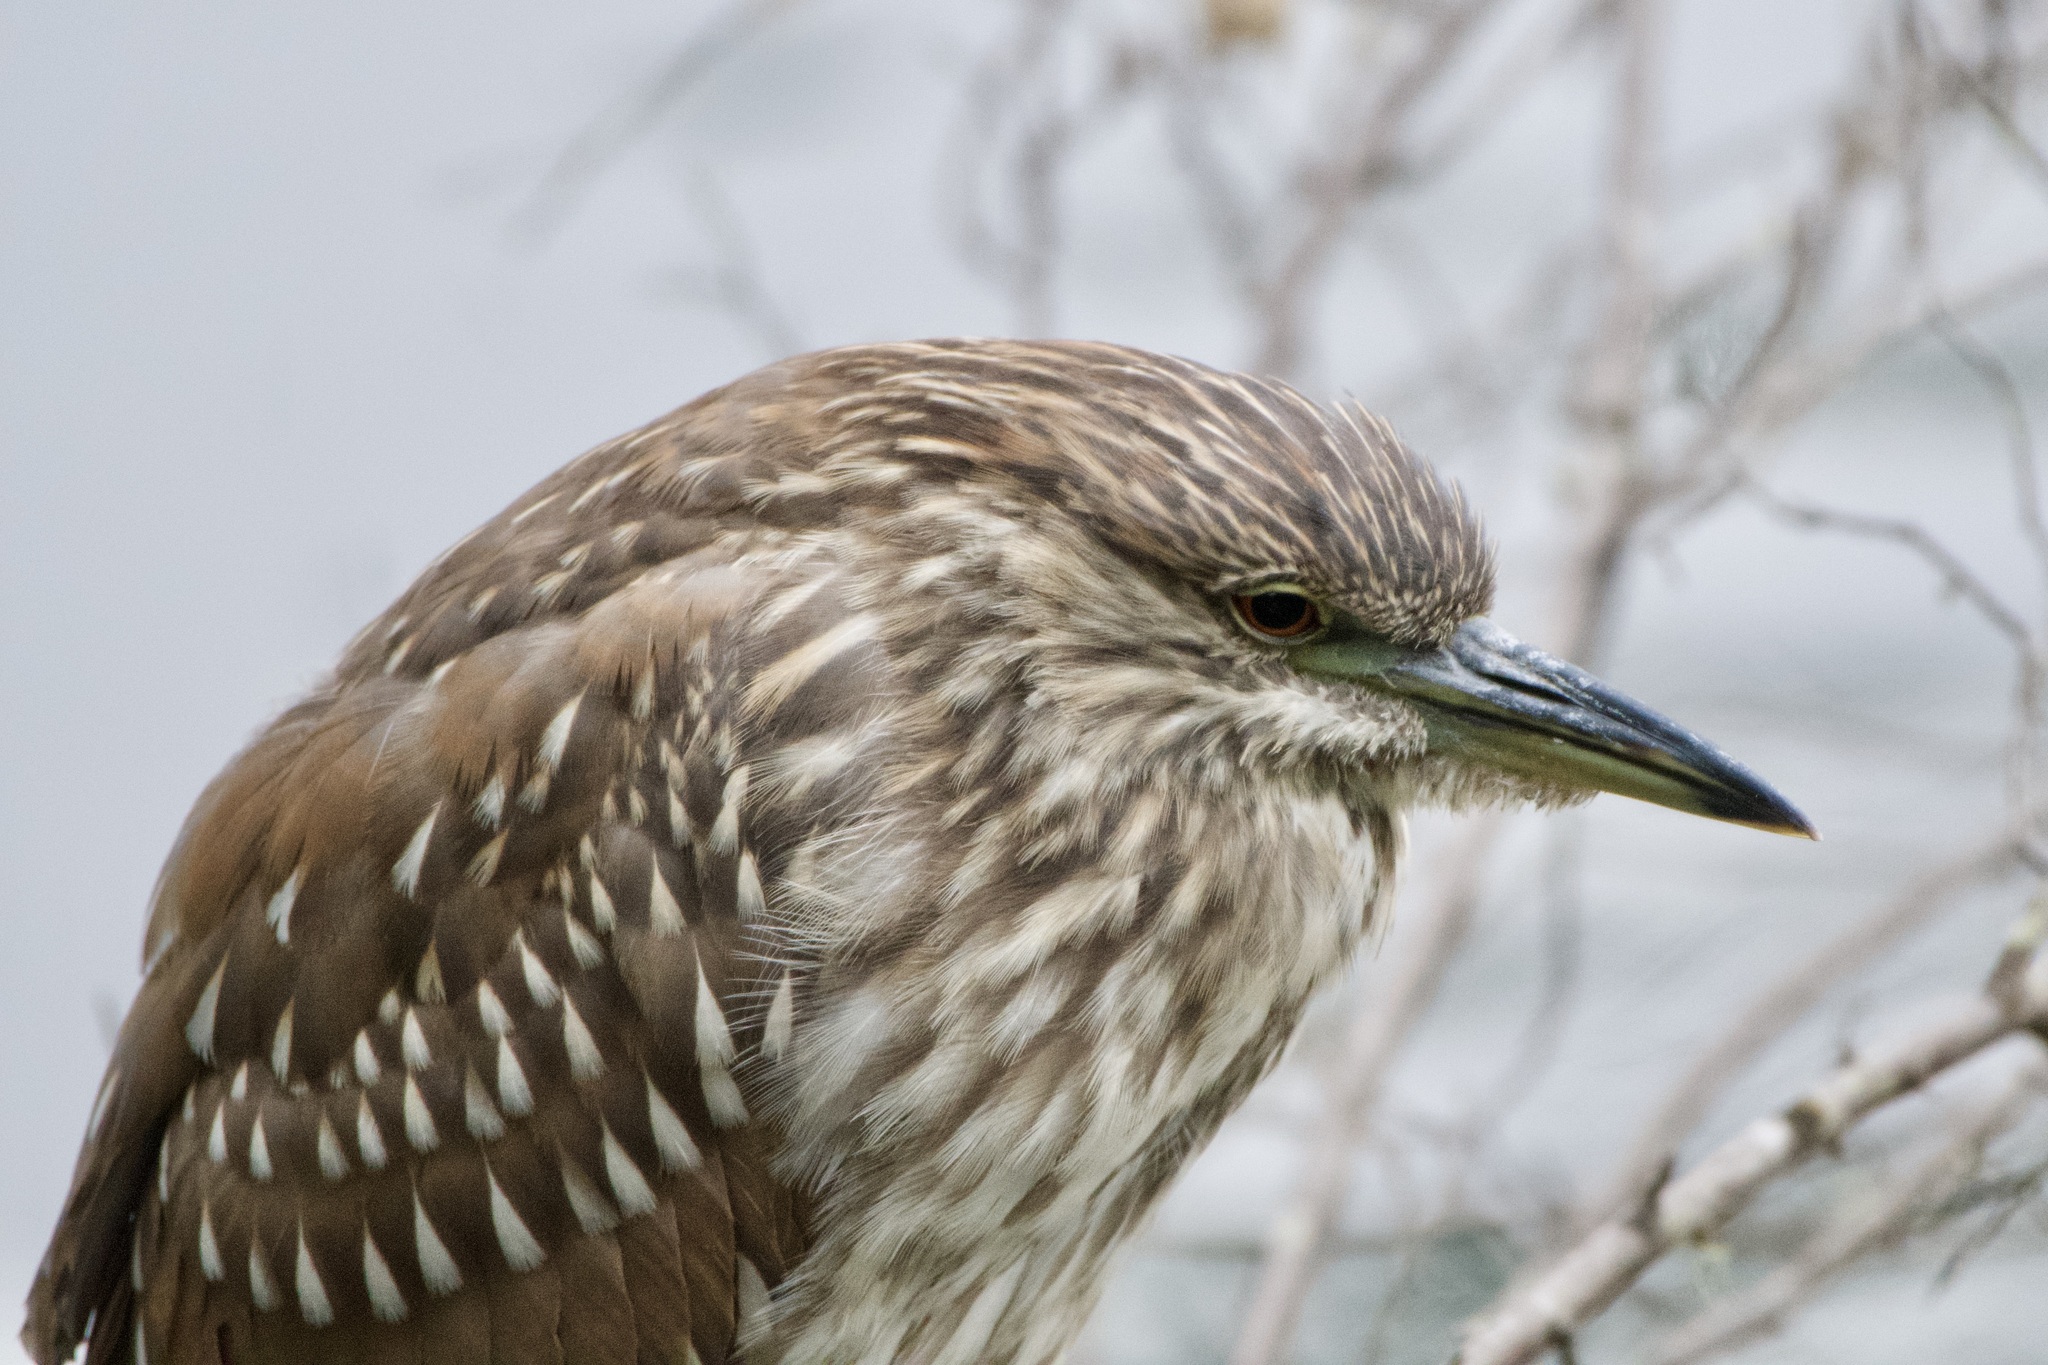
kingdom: Animalia
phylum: Chordata
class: Aves
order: Pelecaniformes
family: Ardeidae
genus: Nycticorax
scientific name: Nycticorax nycticorax
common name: Black-crowned night heron
